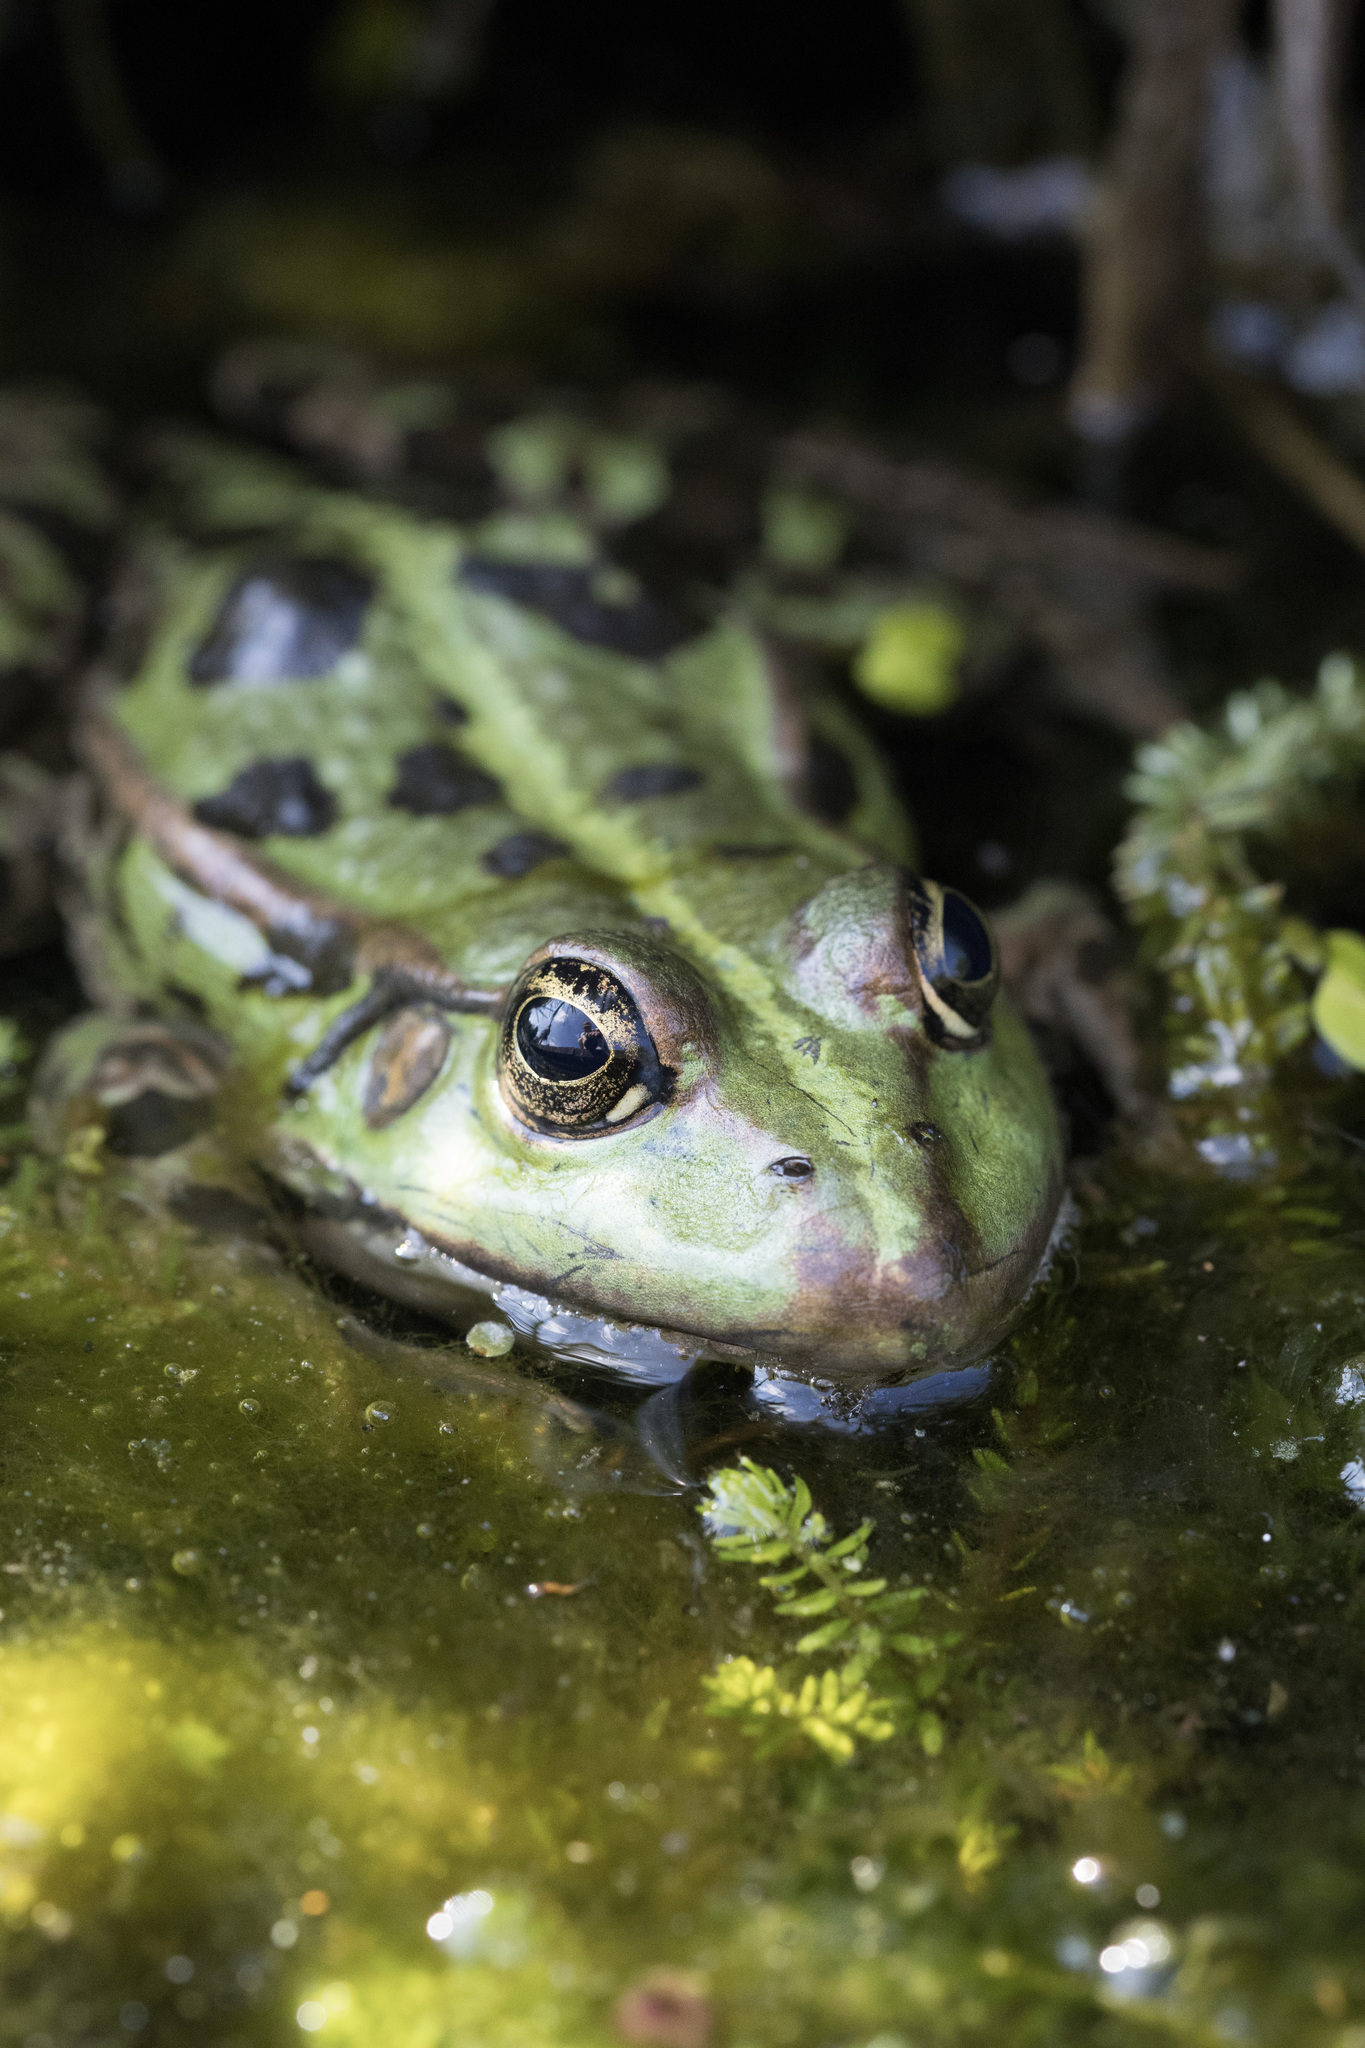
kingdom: Animalia
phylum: Chordata
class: Amphibia
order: Anura
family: Ranidae
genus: Pelophylax
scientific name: Pelophylax
